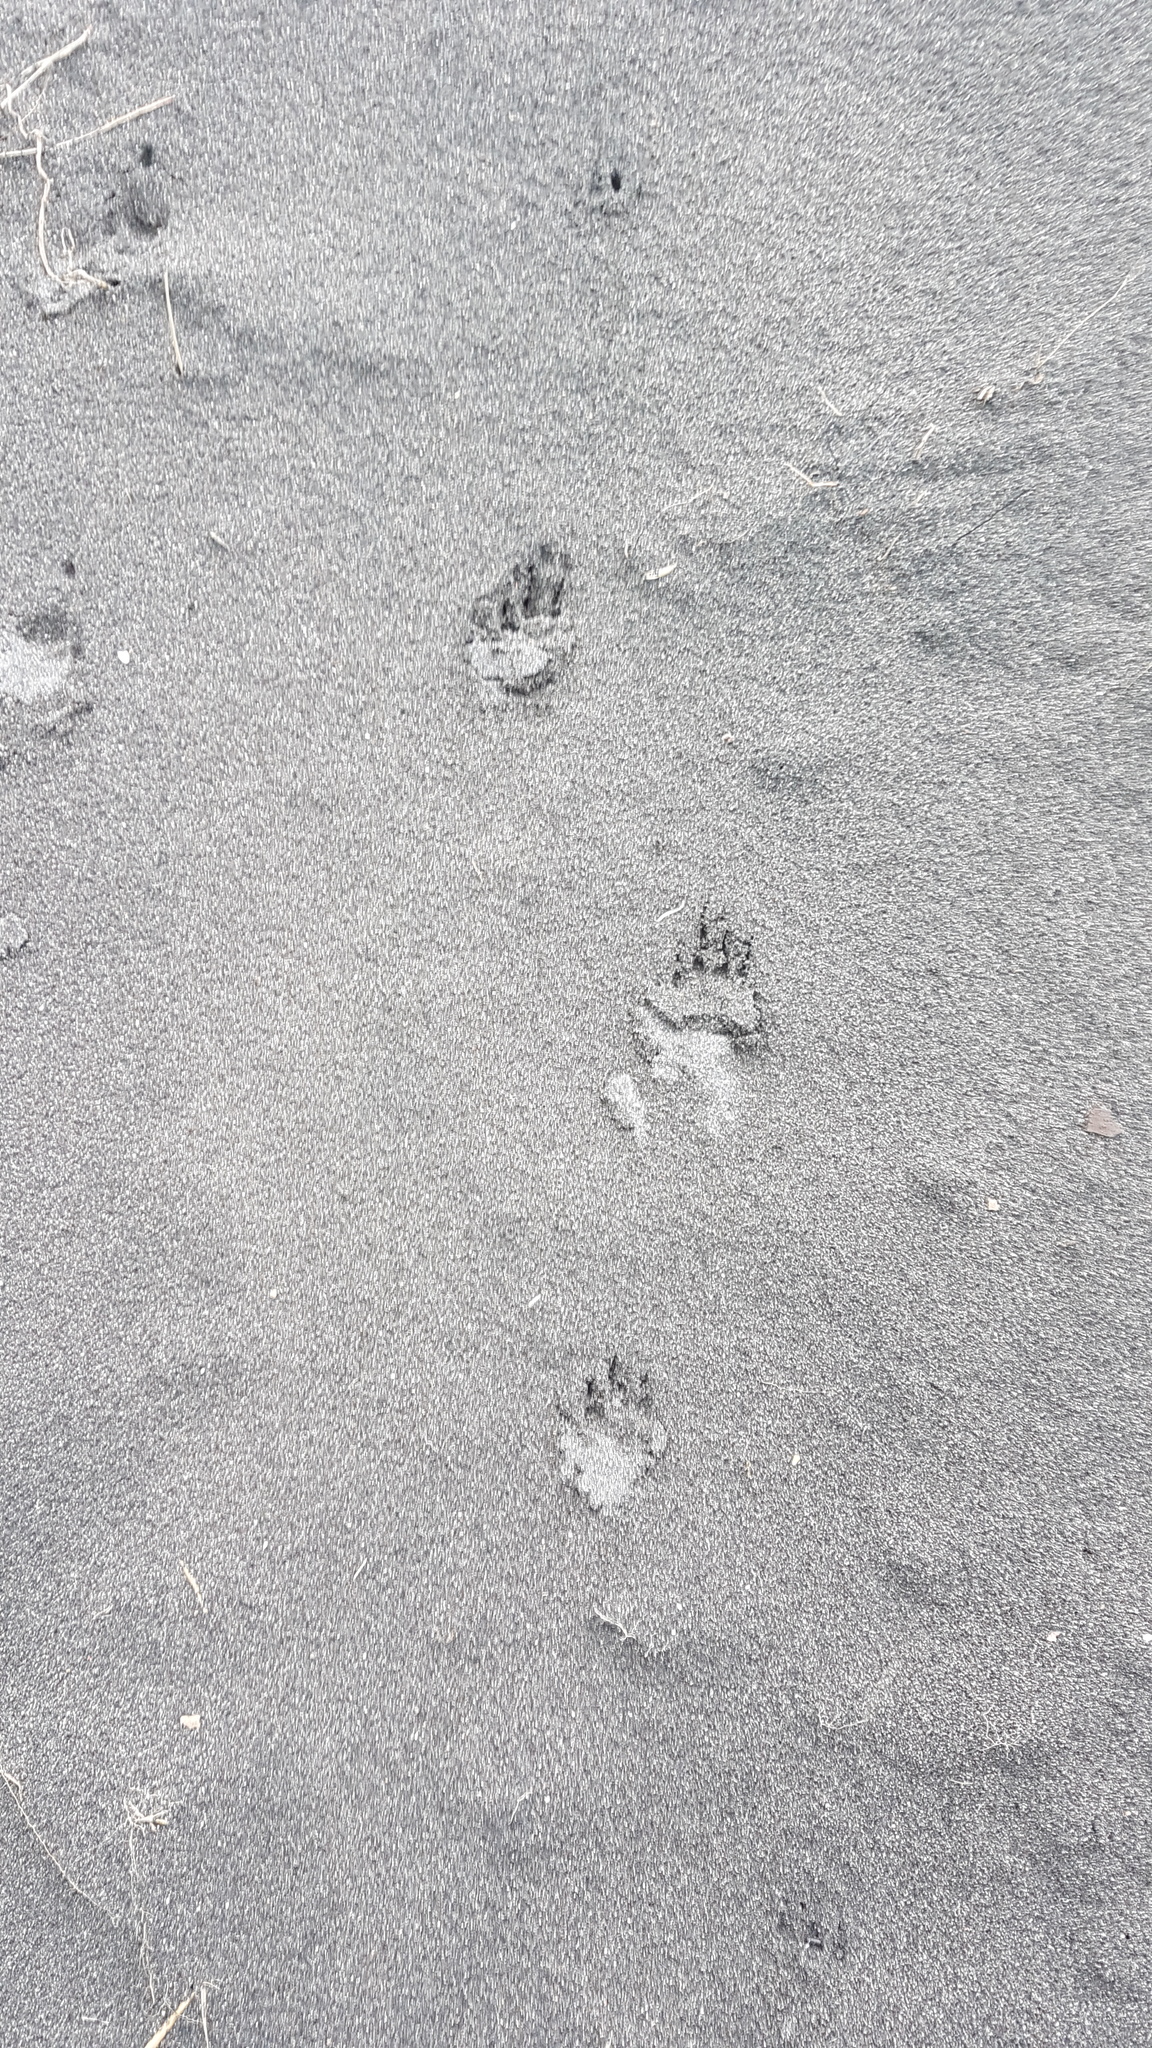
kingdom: Animalia
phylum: Chordata
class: Mammalia
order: Erinaceomorpha
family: Erinaceidae
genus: Erinaceus
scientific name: Erinaceus europaeus
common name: West european hedgehog
